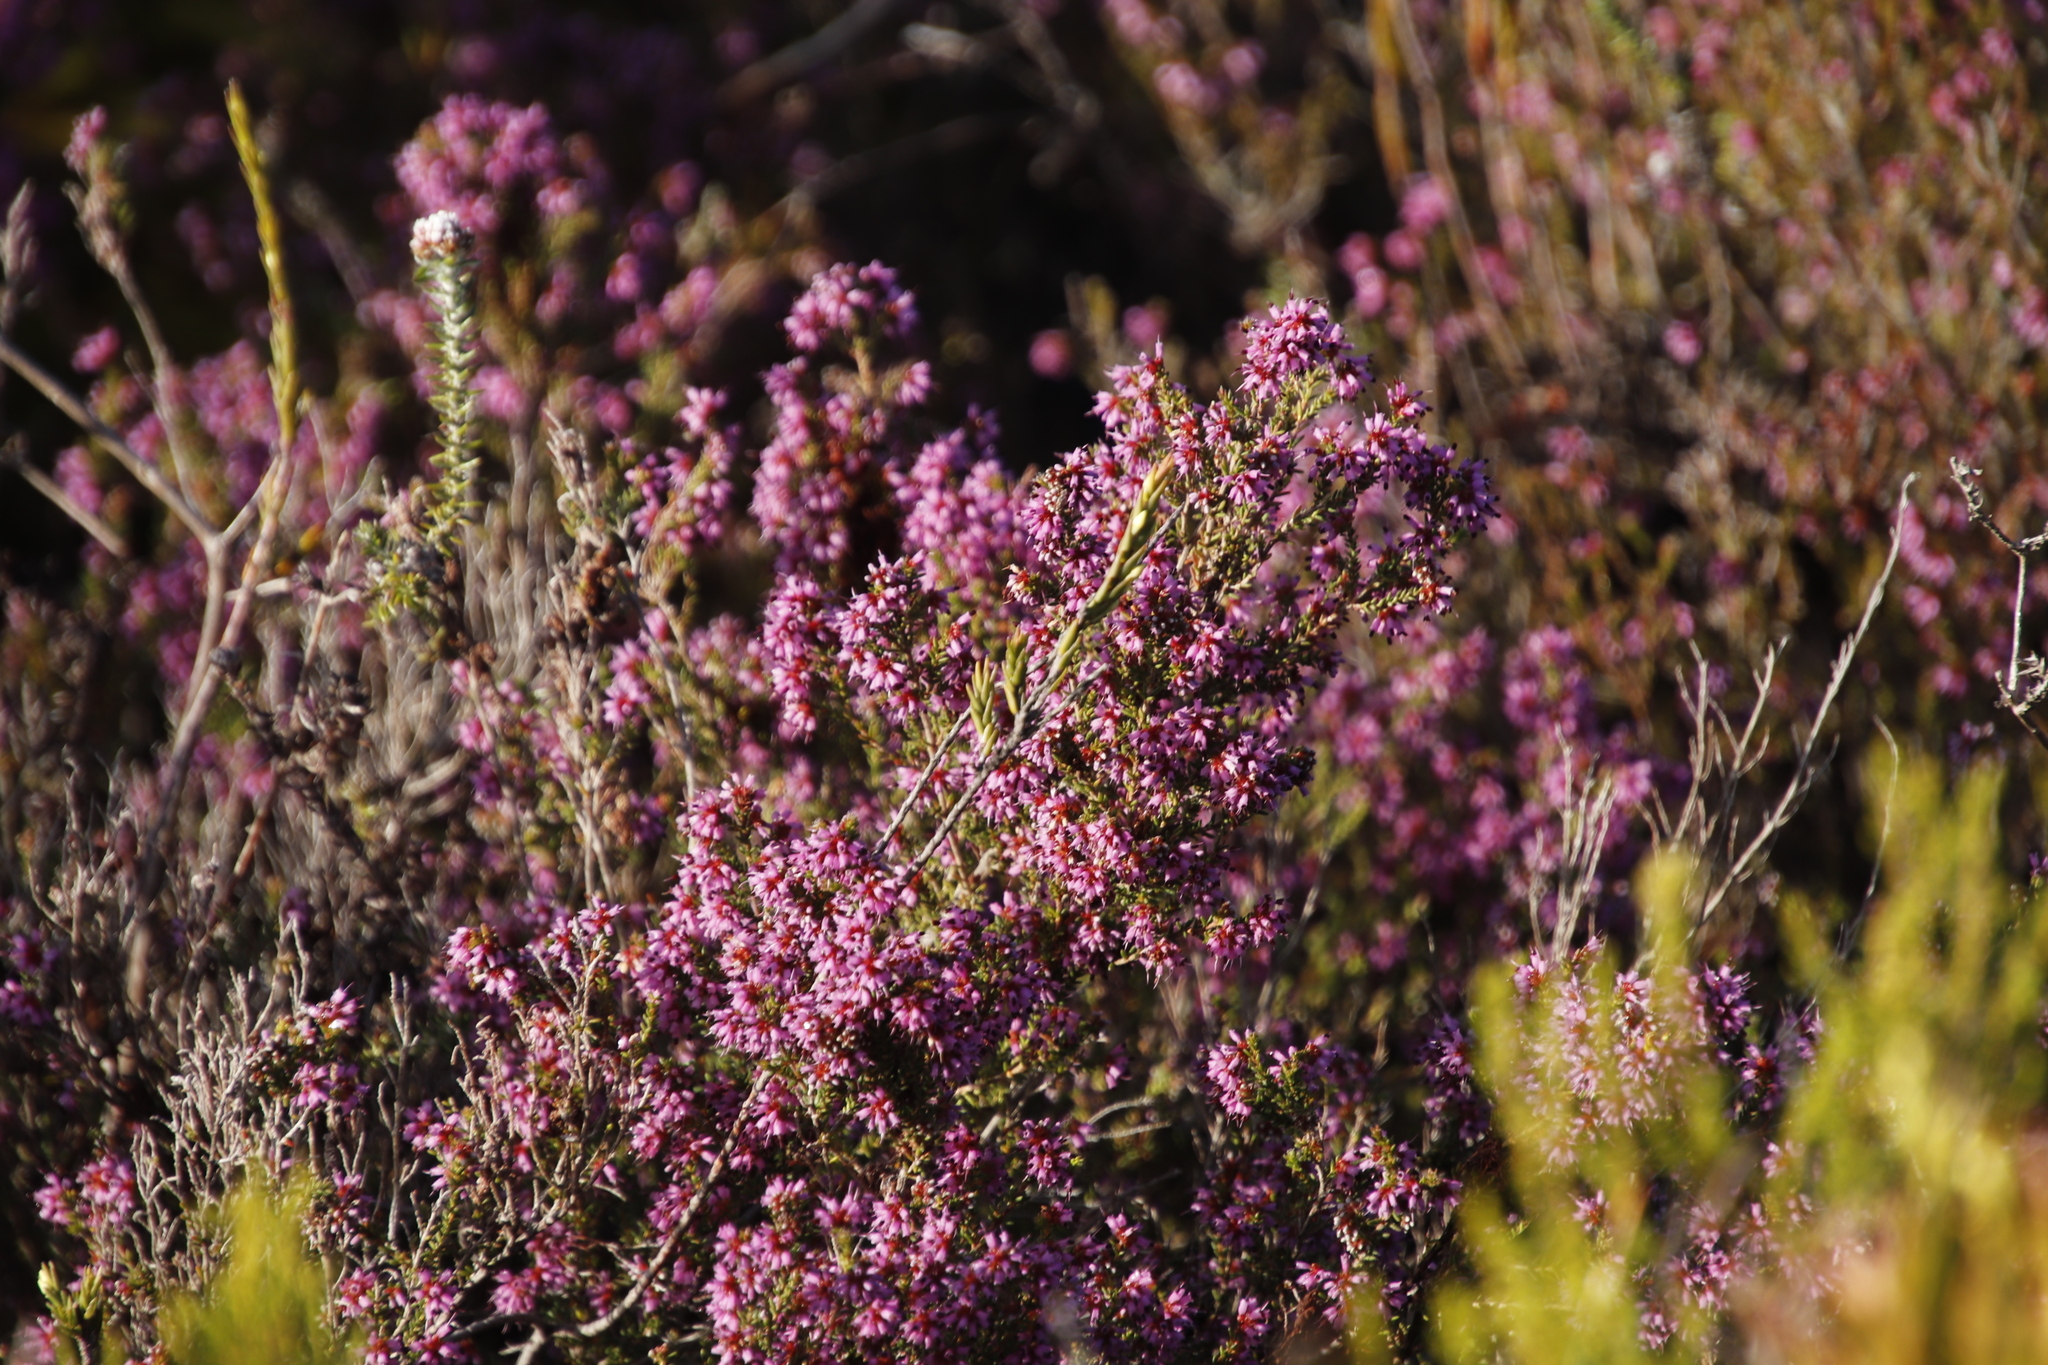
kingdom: Plantae
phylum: Tracheophyta
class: Magnoliopsida
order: Ericales
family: Ericaceae
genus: Erica
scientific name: Erica glabella
